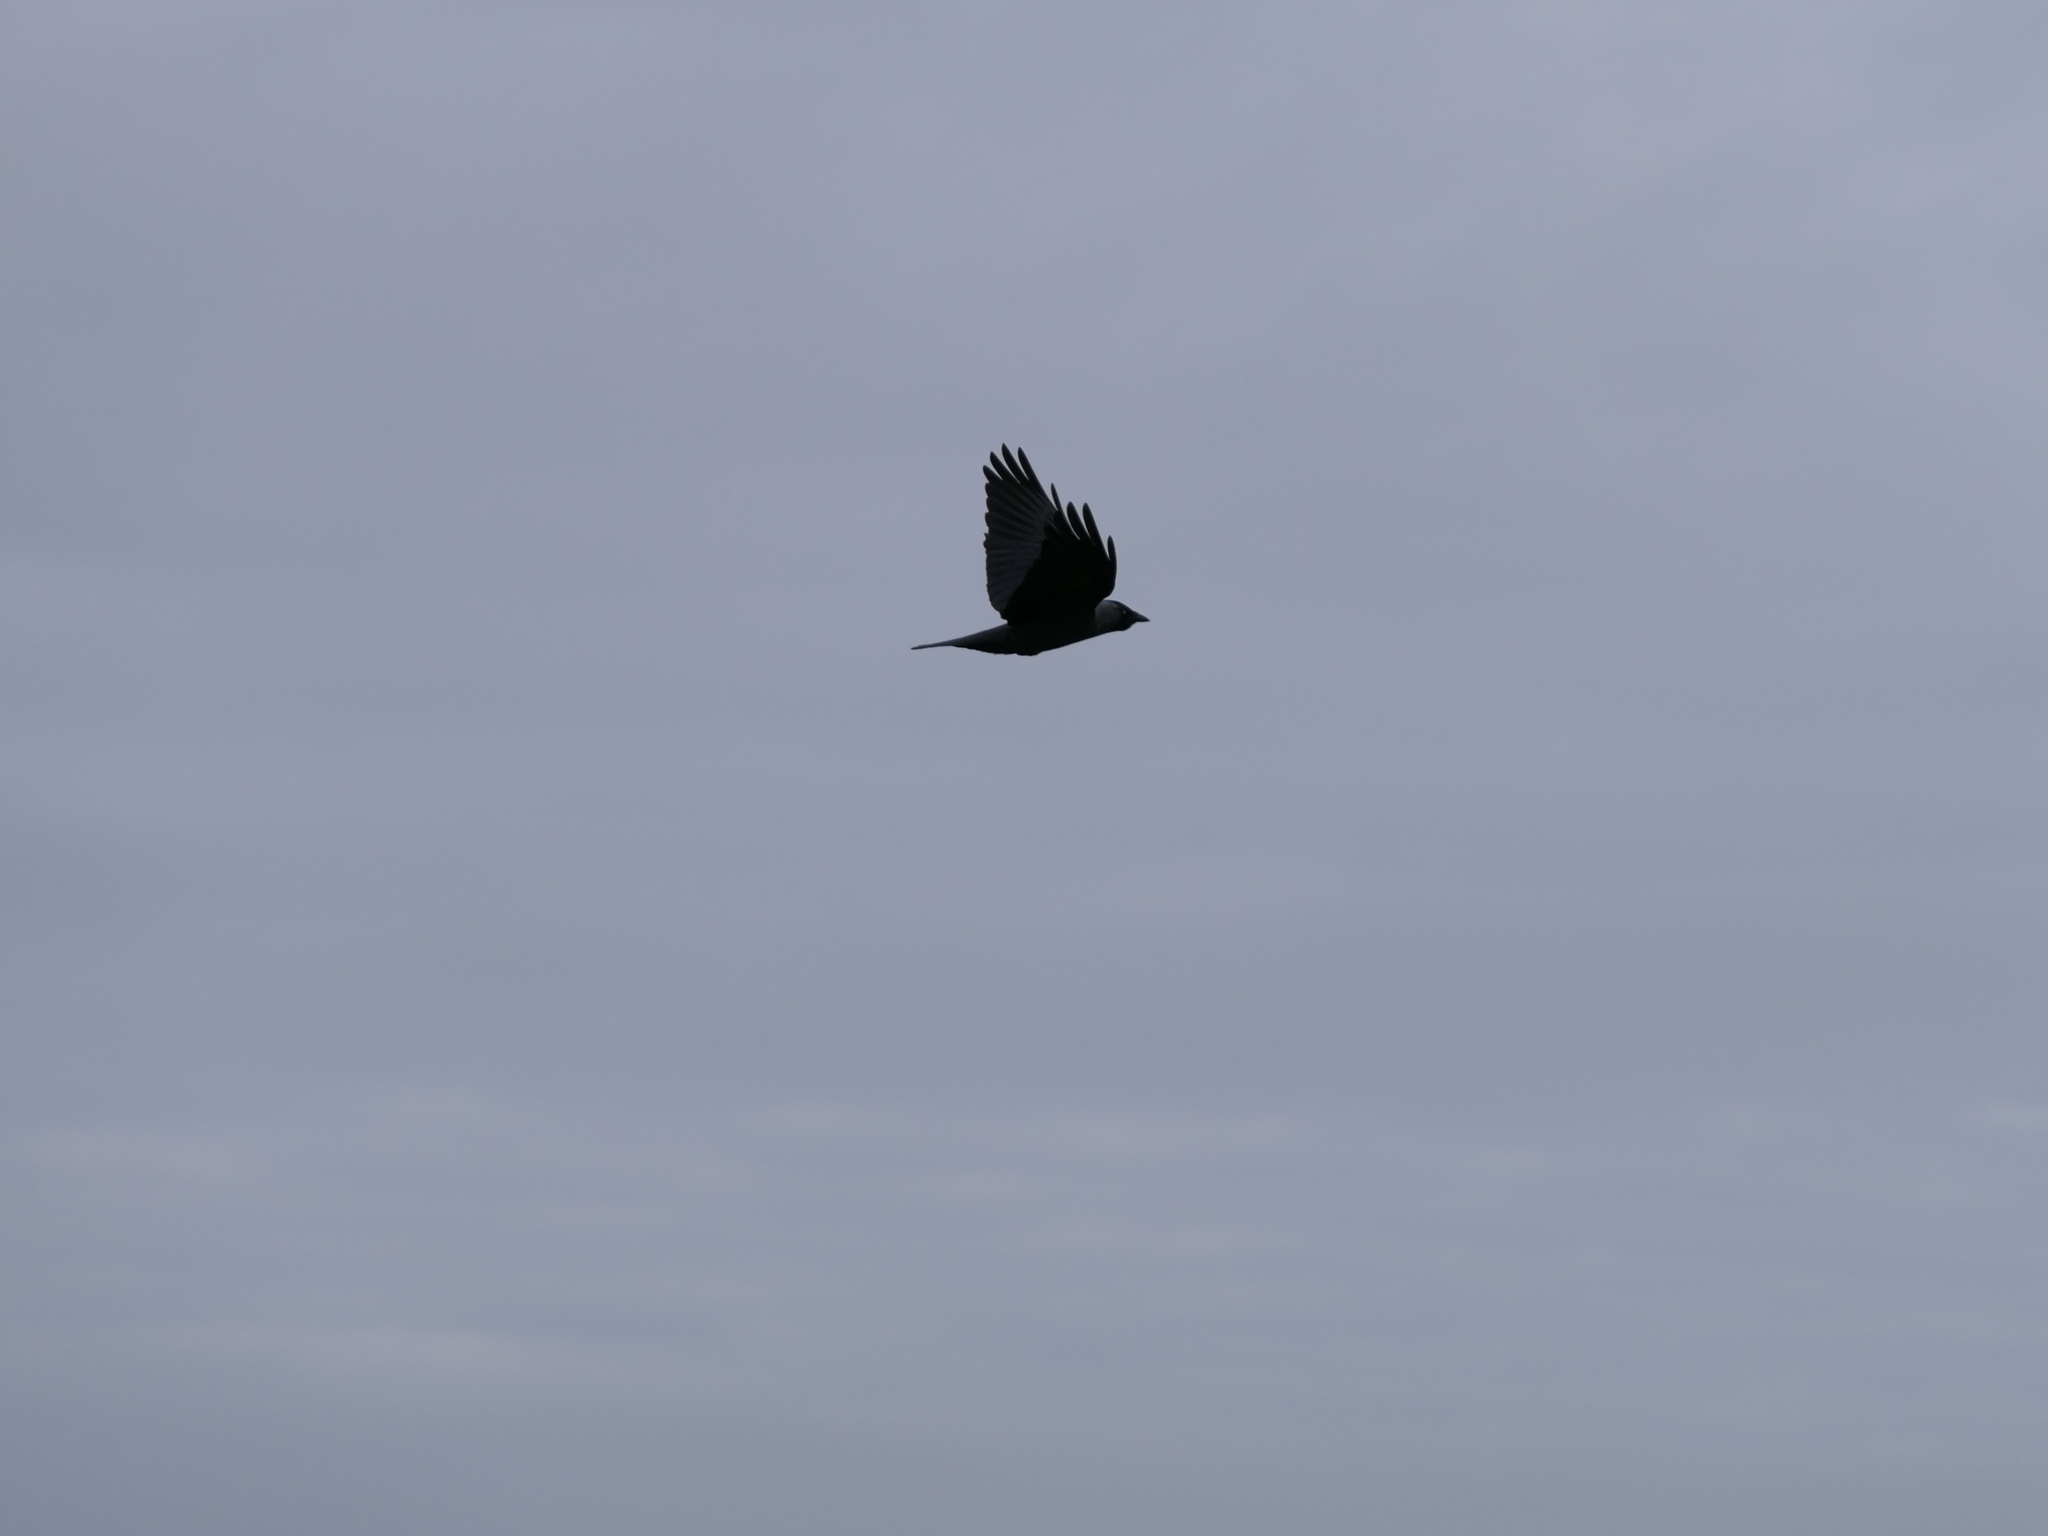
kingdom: Animalia
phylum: Chordata
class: Aves
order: Passeriformes
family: Corvidae
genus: Coloeus
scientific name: Coloeus monedula
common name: Western jackdaw
